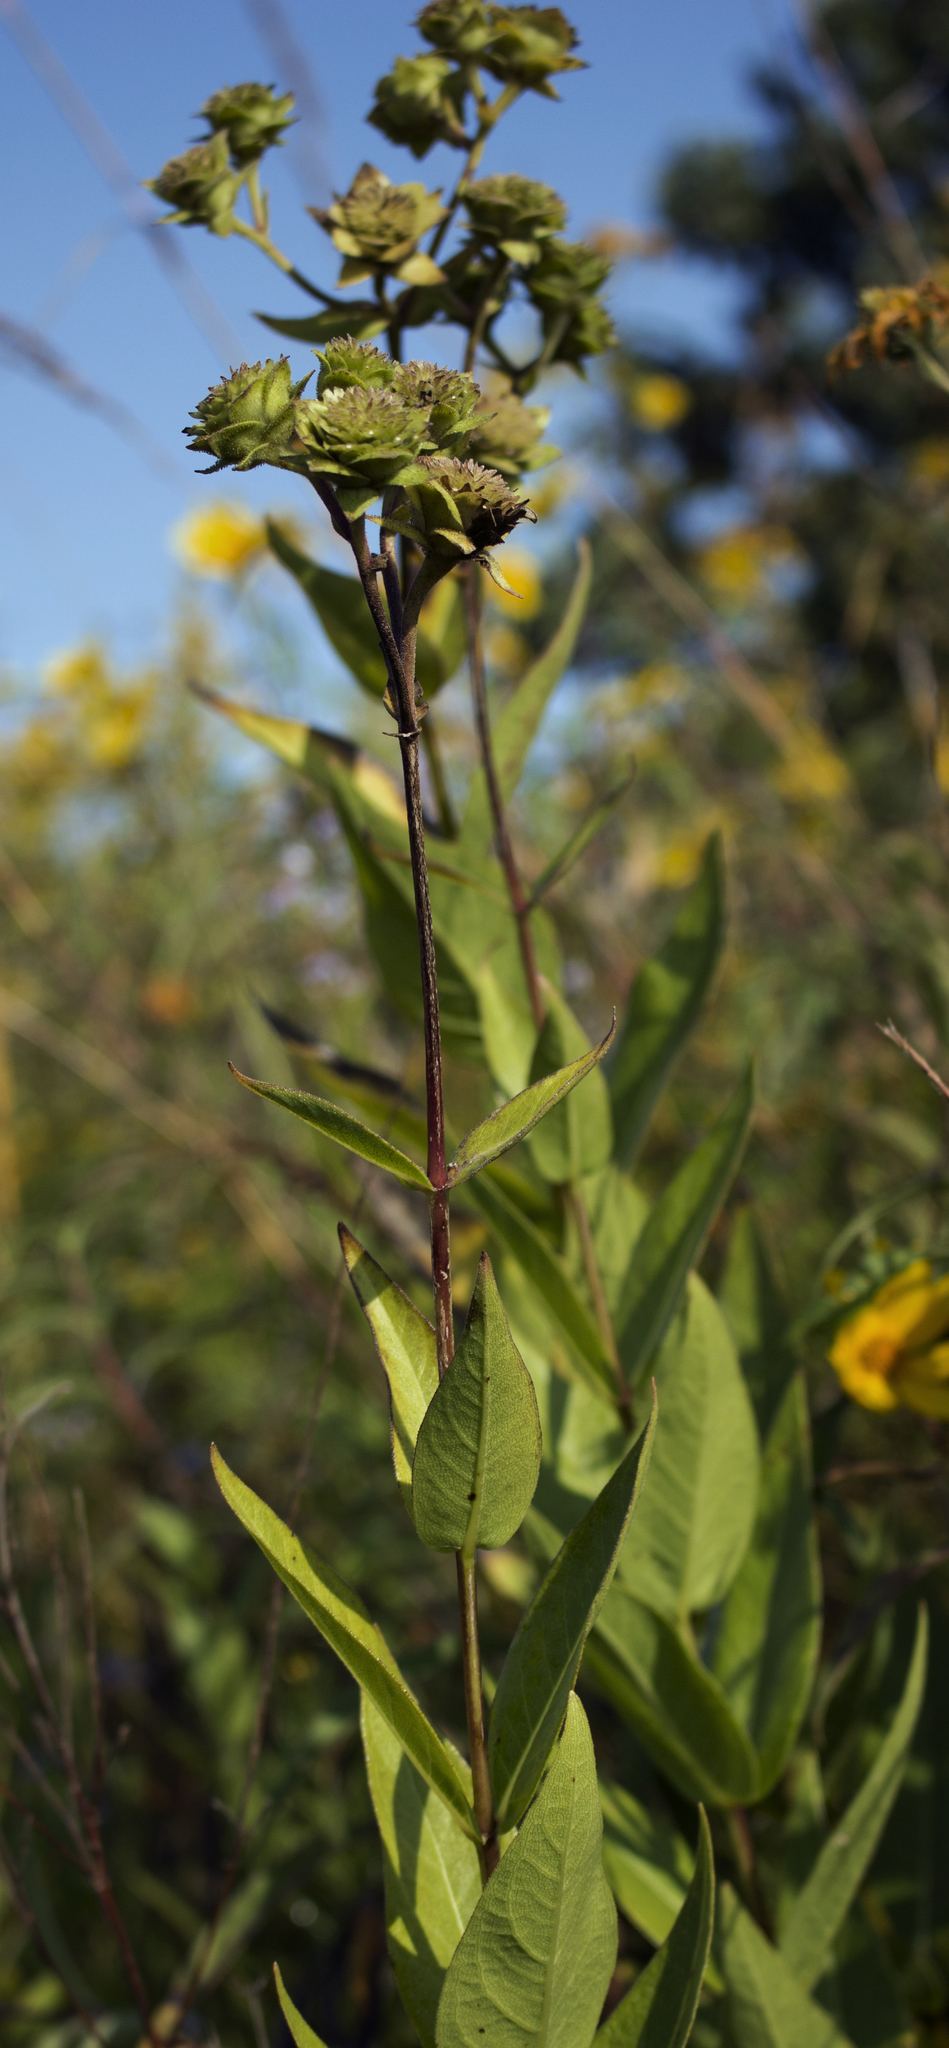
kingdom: Plantae
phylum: Tracheophyta
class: Magnoliopsida
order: Asterales
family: Asteraceae
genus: Silphium
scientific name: Silphium integrifolium
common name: Whole-leaf rosinweed
